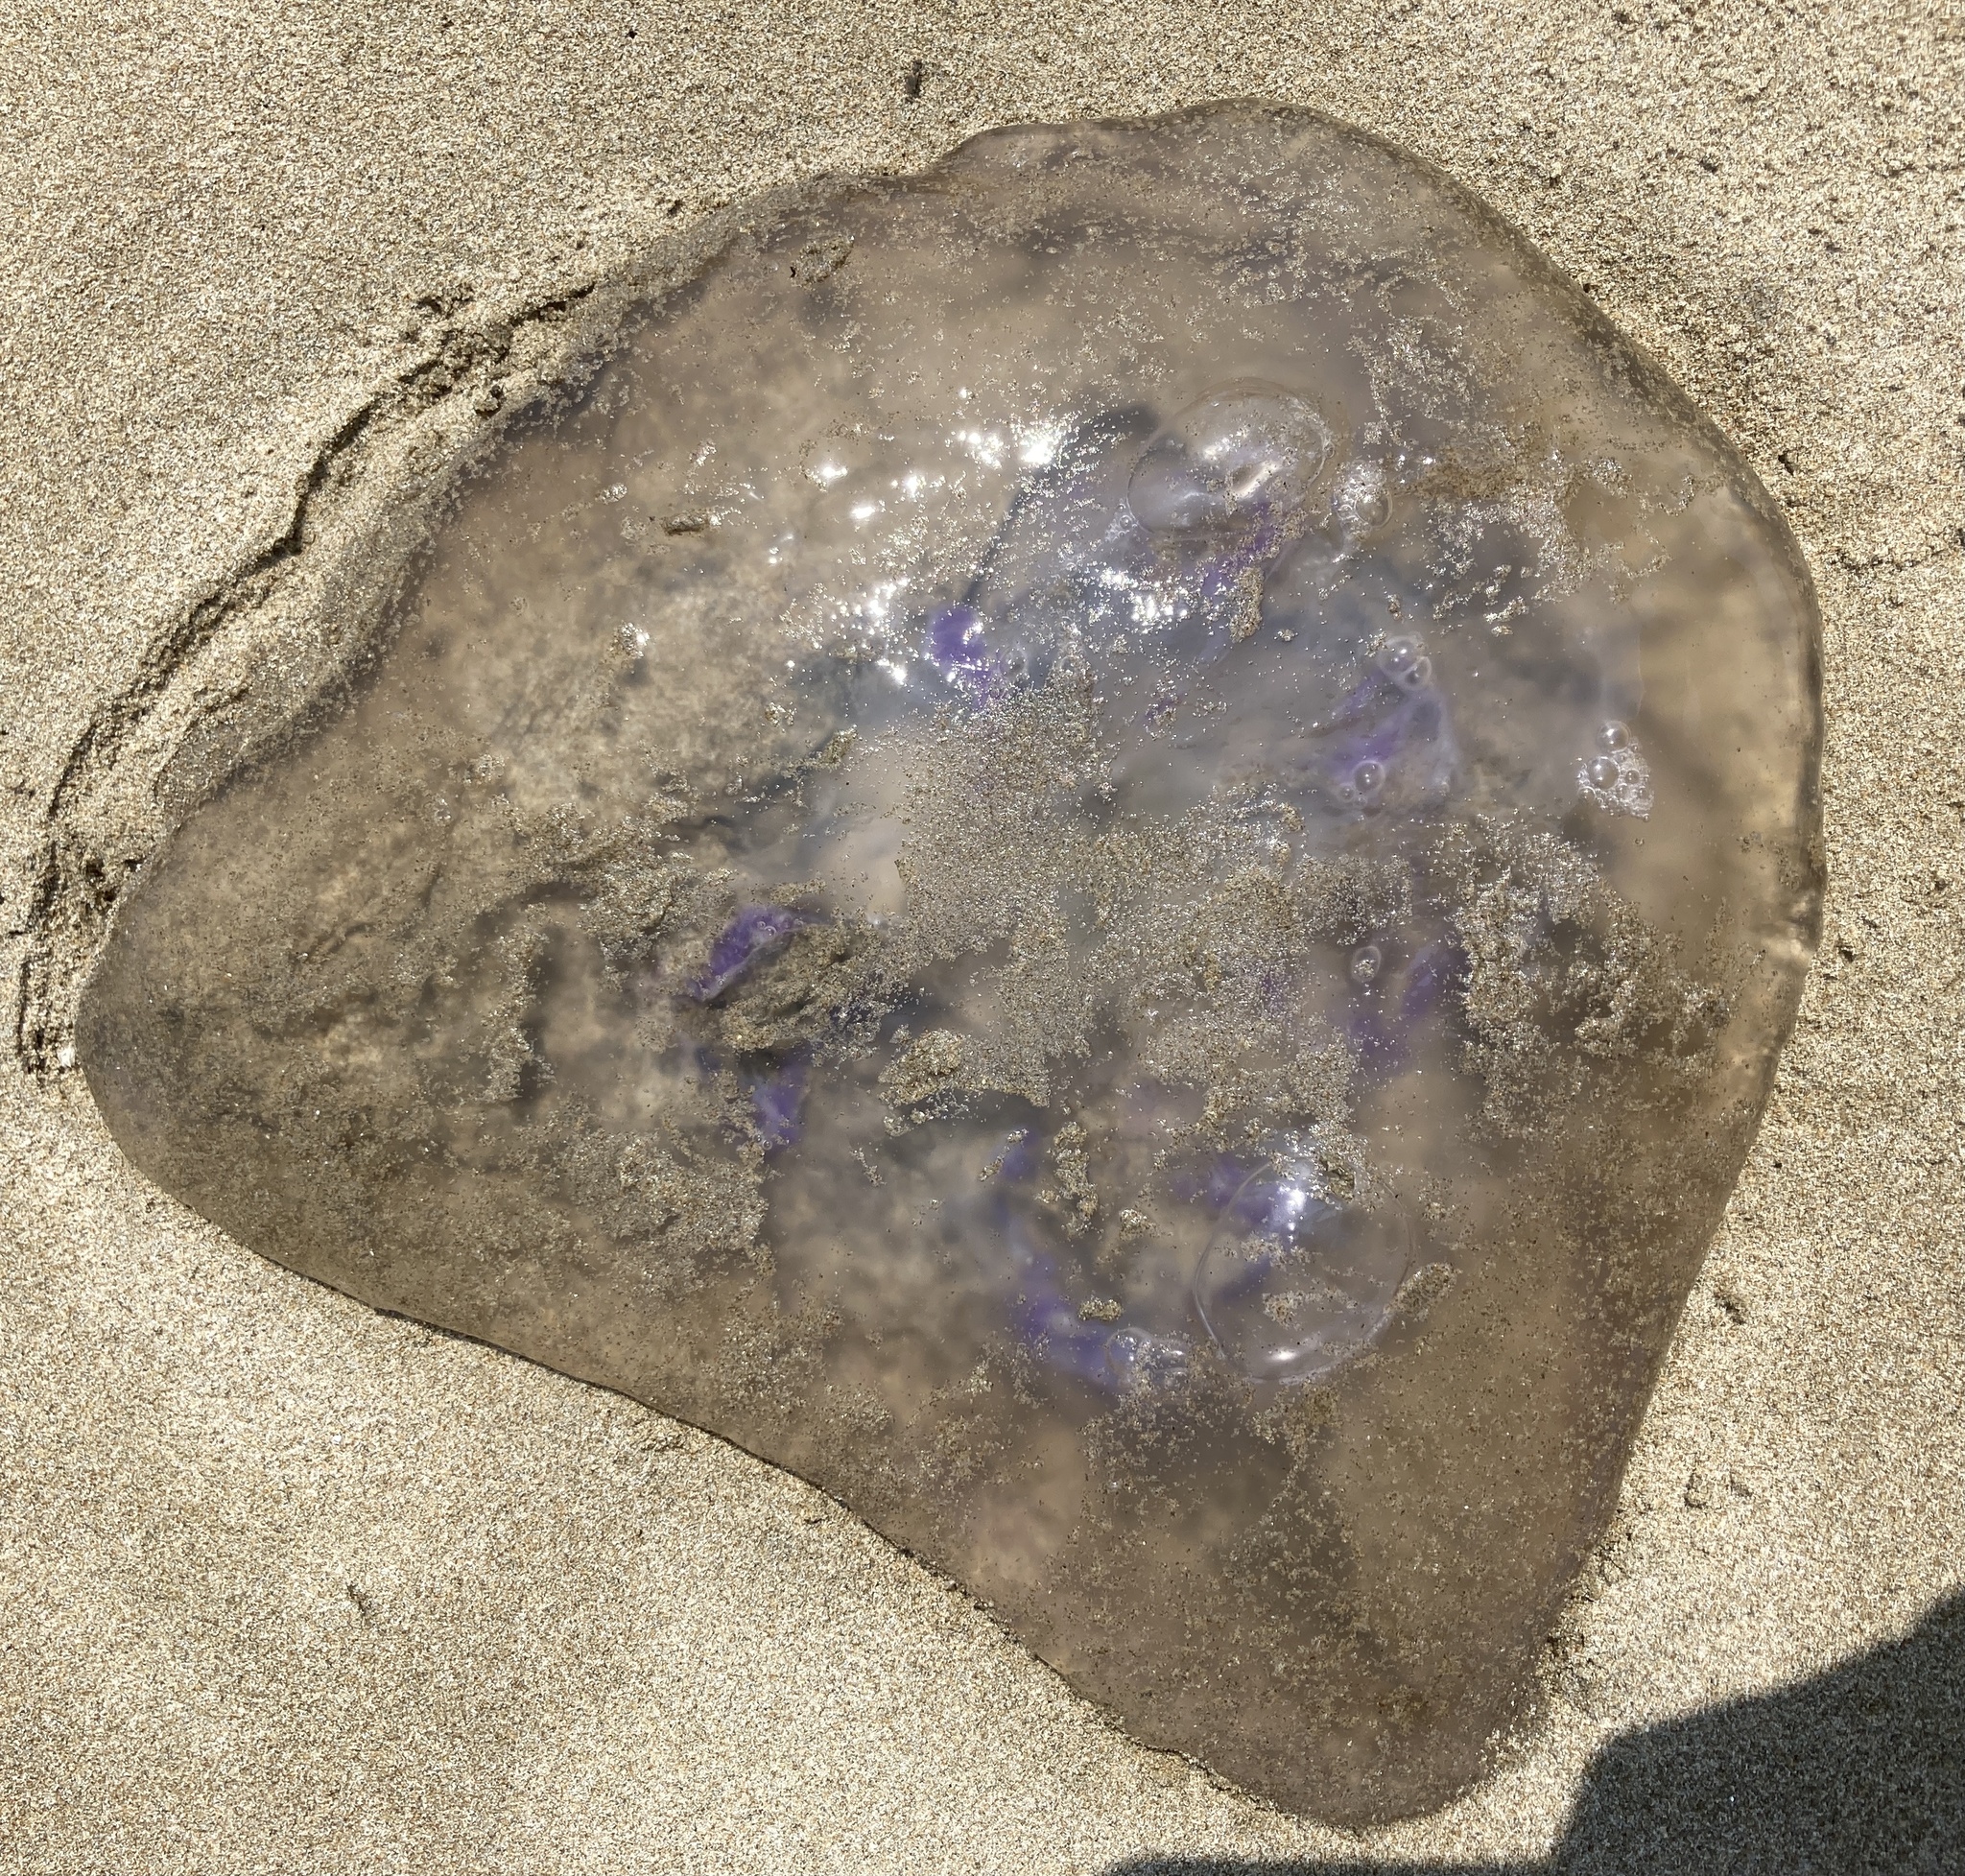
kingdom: Animalia
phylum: Cnidaria
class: Scyphozoa
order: Semaeostomeae
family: Ulmaridae
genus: Aurelia
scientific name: Aurelia labiata
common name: Pacific moon jelly
